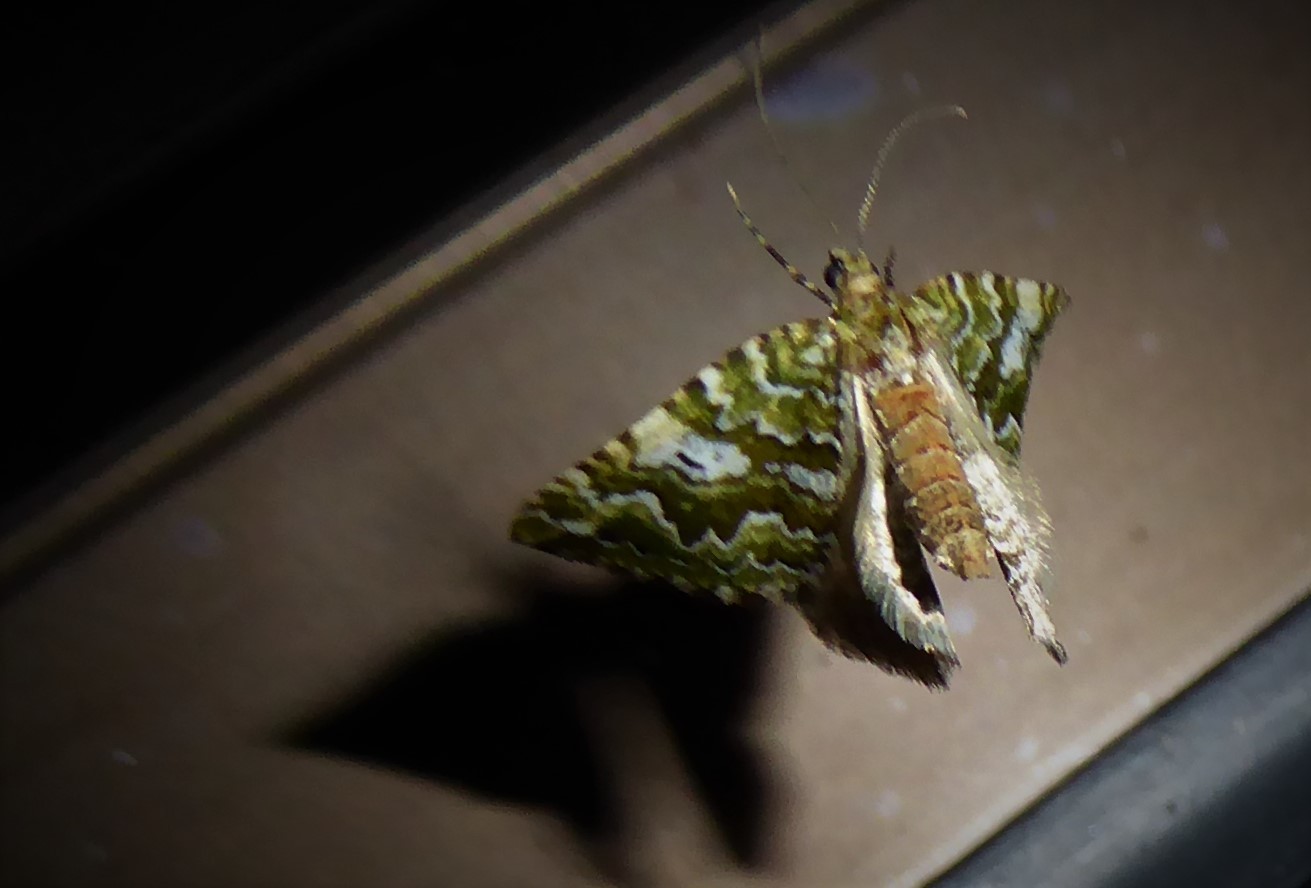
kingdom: Animalia
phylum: Arthropoda
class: Insecta
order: Lepidoptera
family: Geometridae
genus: Asaphodes
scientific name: Asaphodes beata
